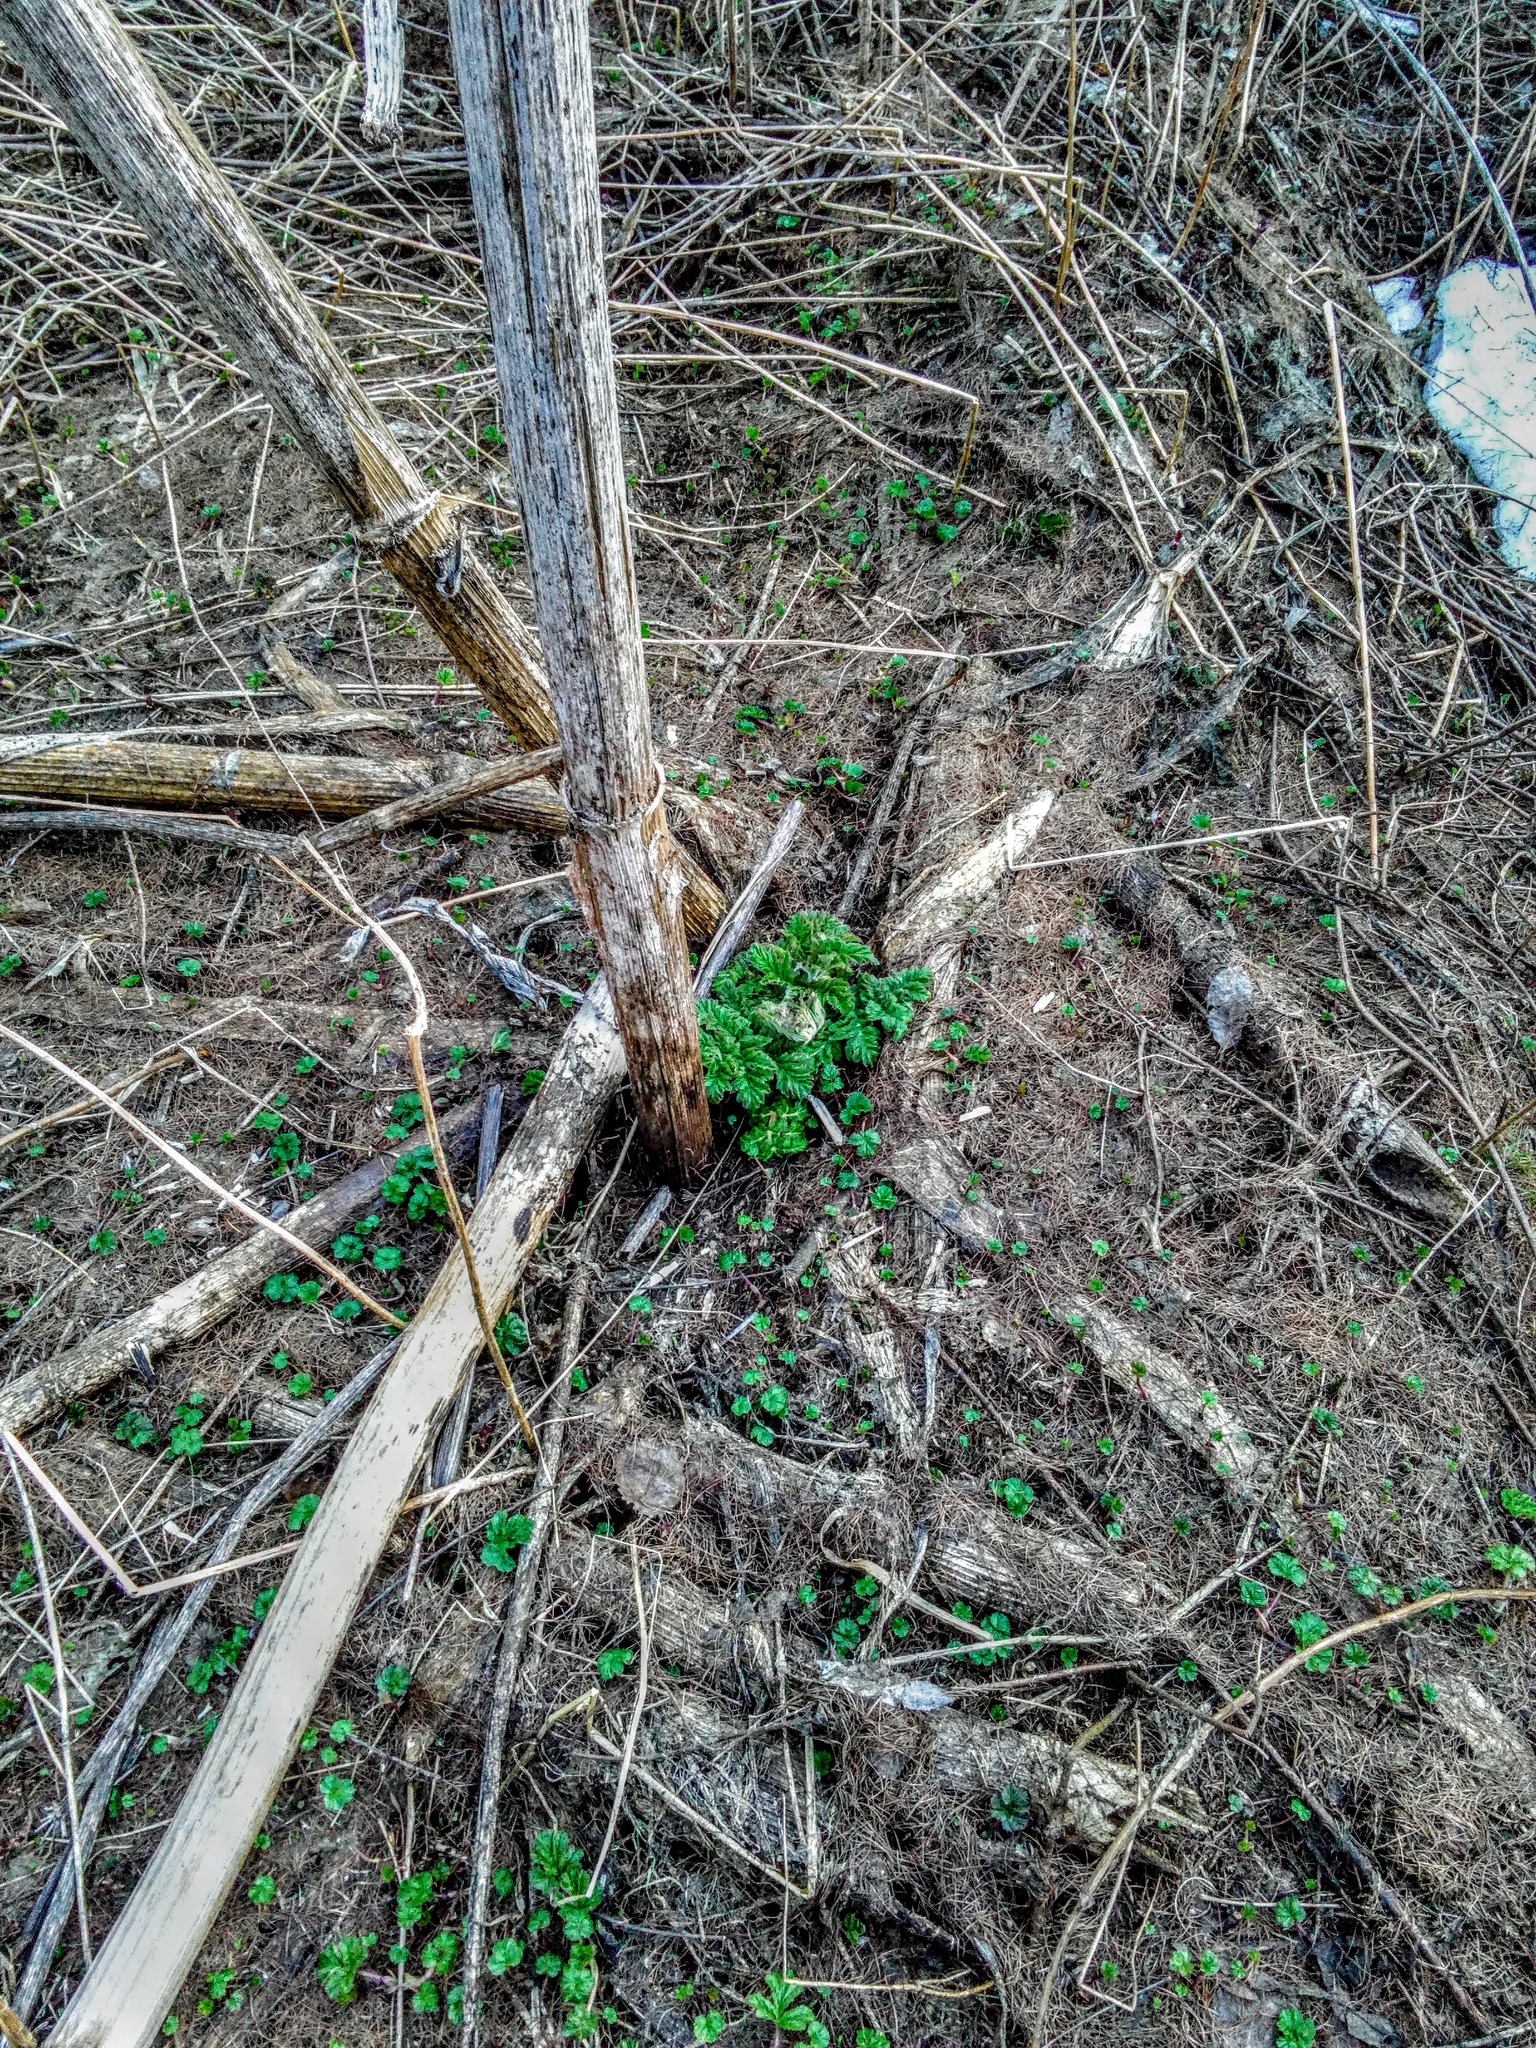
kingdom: Plantae
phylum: Tracheophyta
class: Magnoliopsida
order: Apiales
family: Apiaceae
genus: Heracleum
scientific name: Heracleum sosnowskyi
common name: Sosnowsky's hogweed
